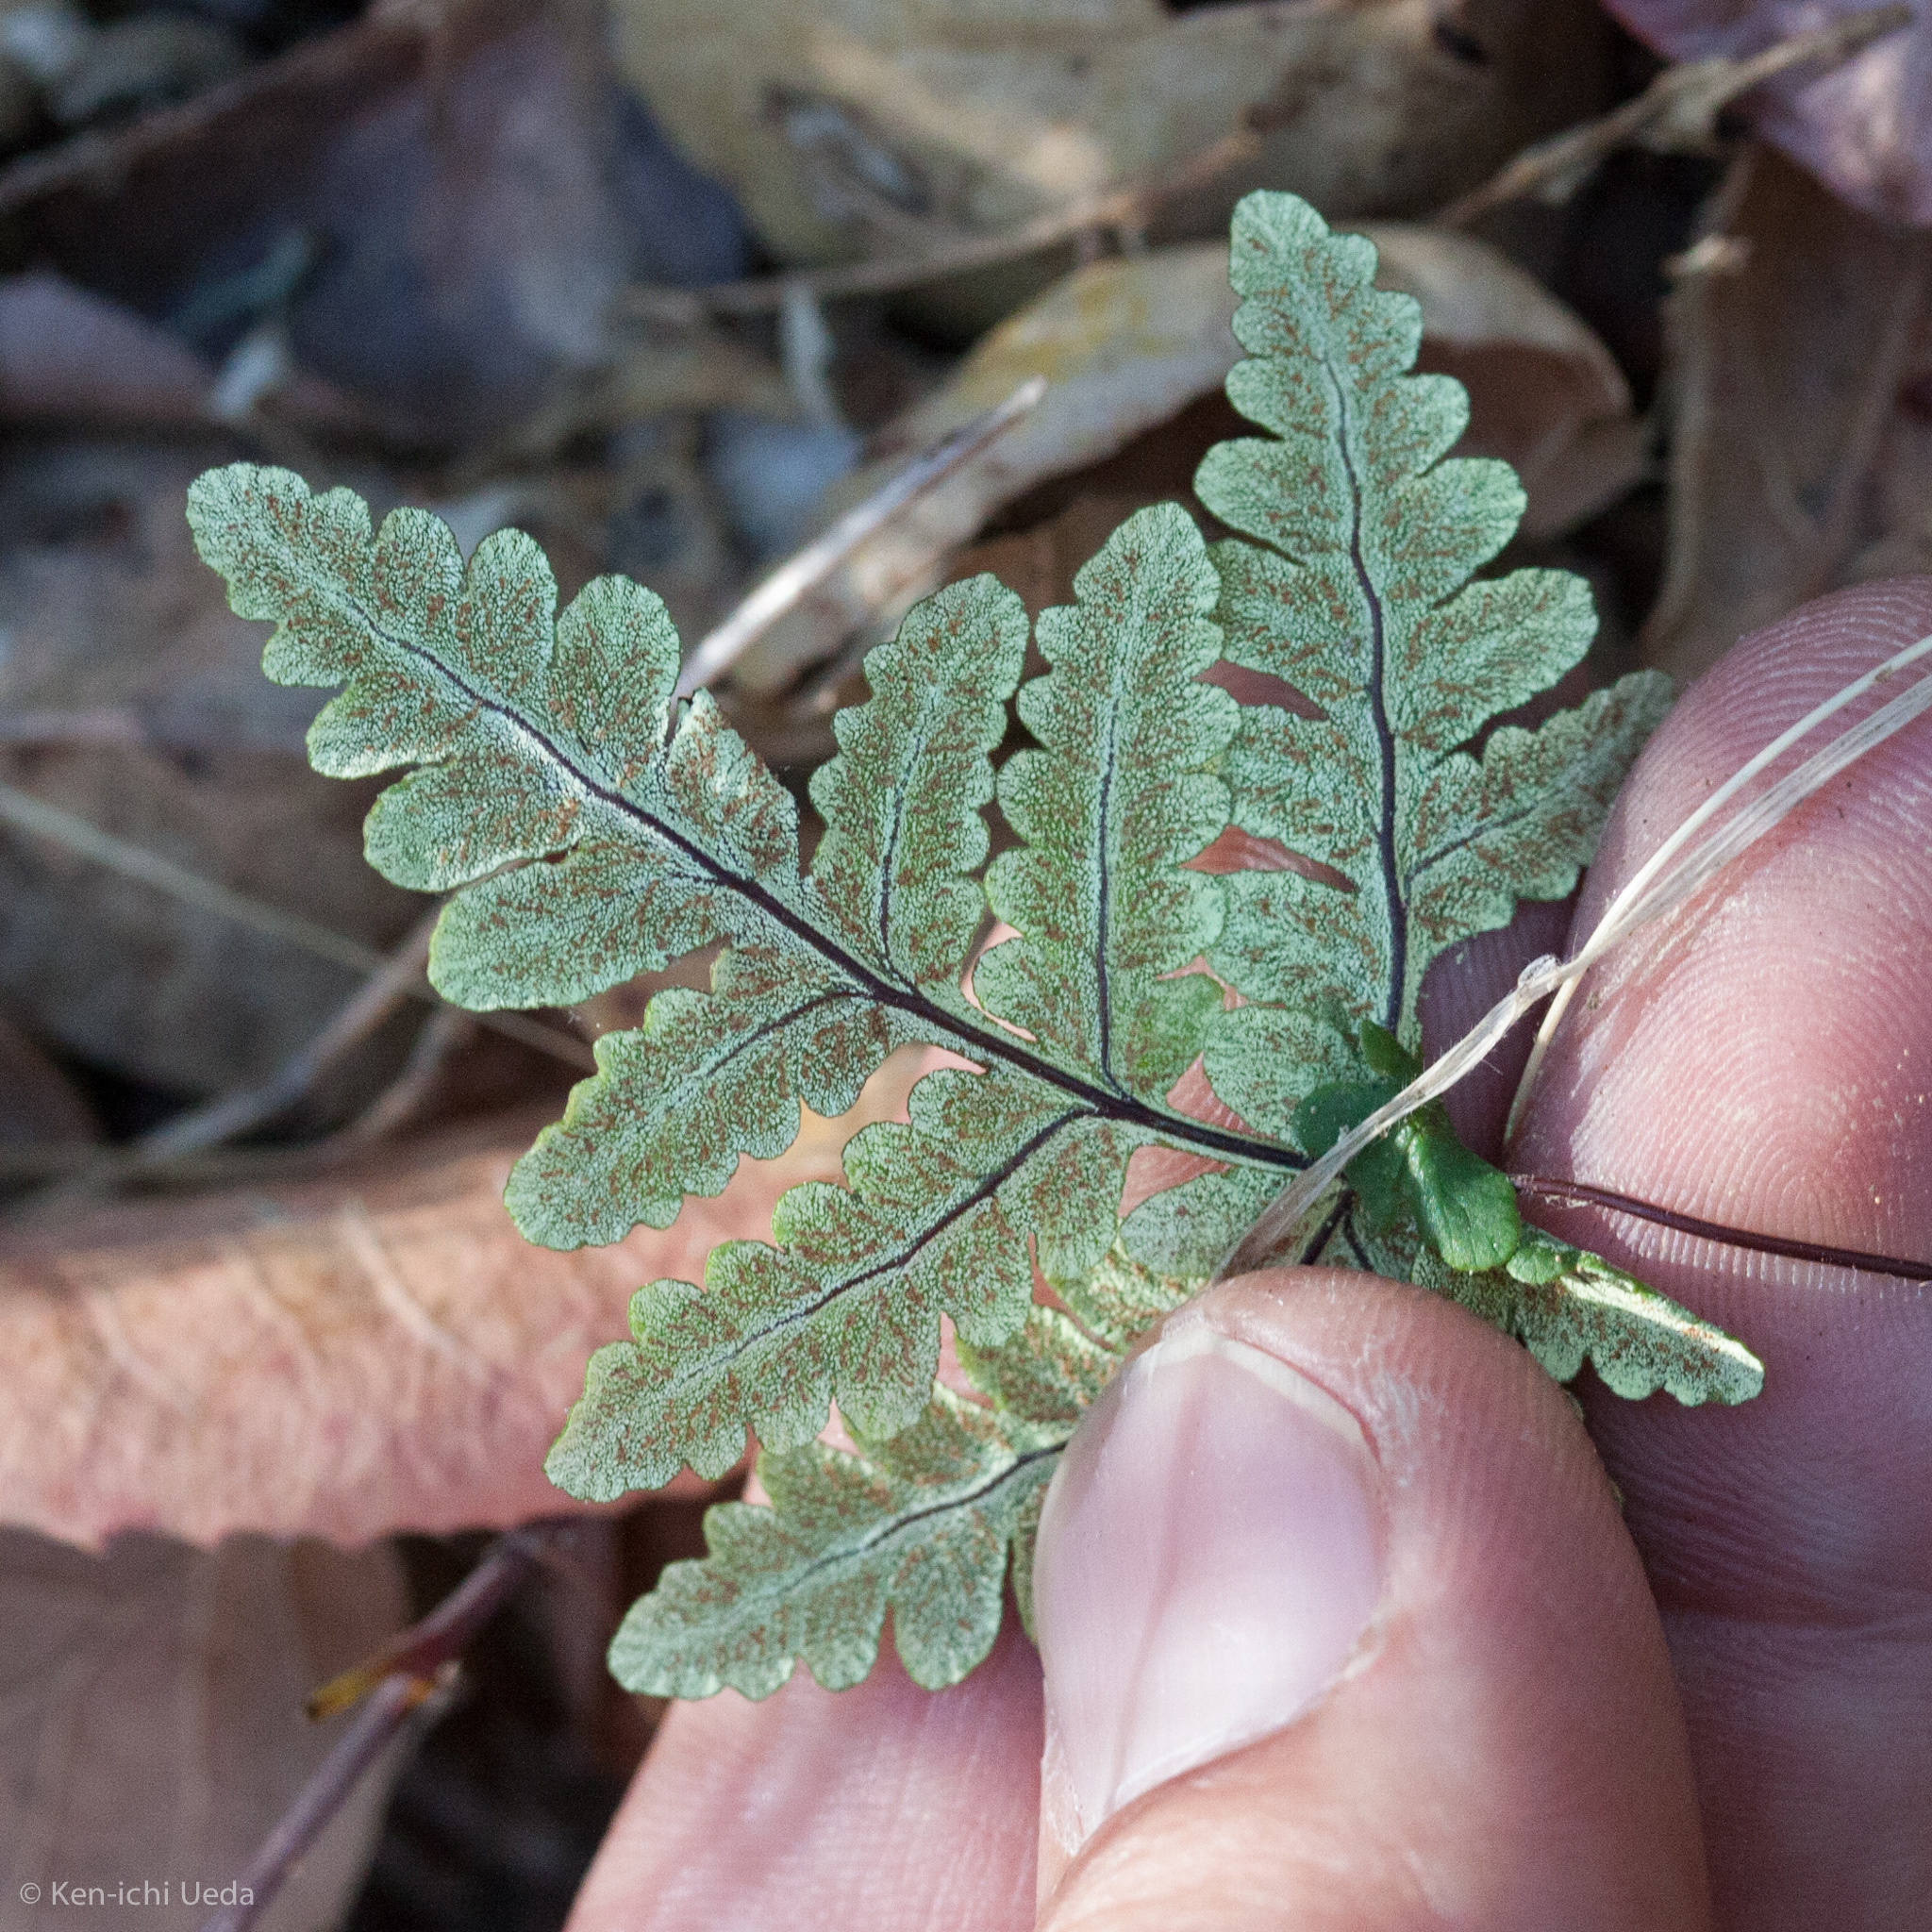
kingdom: Plantae
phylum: Tracheophyta
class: Polypodiopsida
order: Polypodiales
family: Pteridaceae
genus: Pentagramma
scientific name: Pentagramma triangularis
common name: Gold fern
